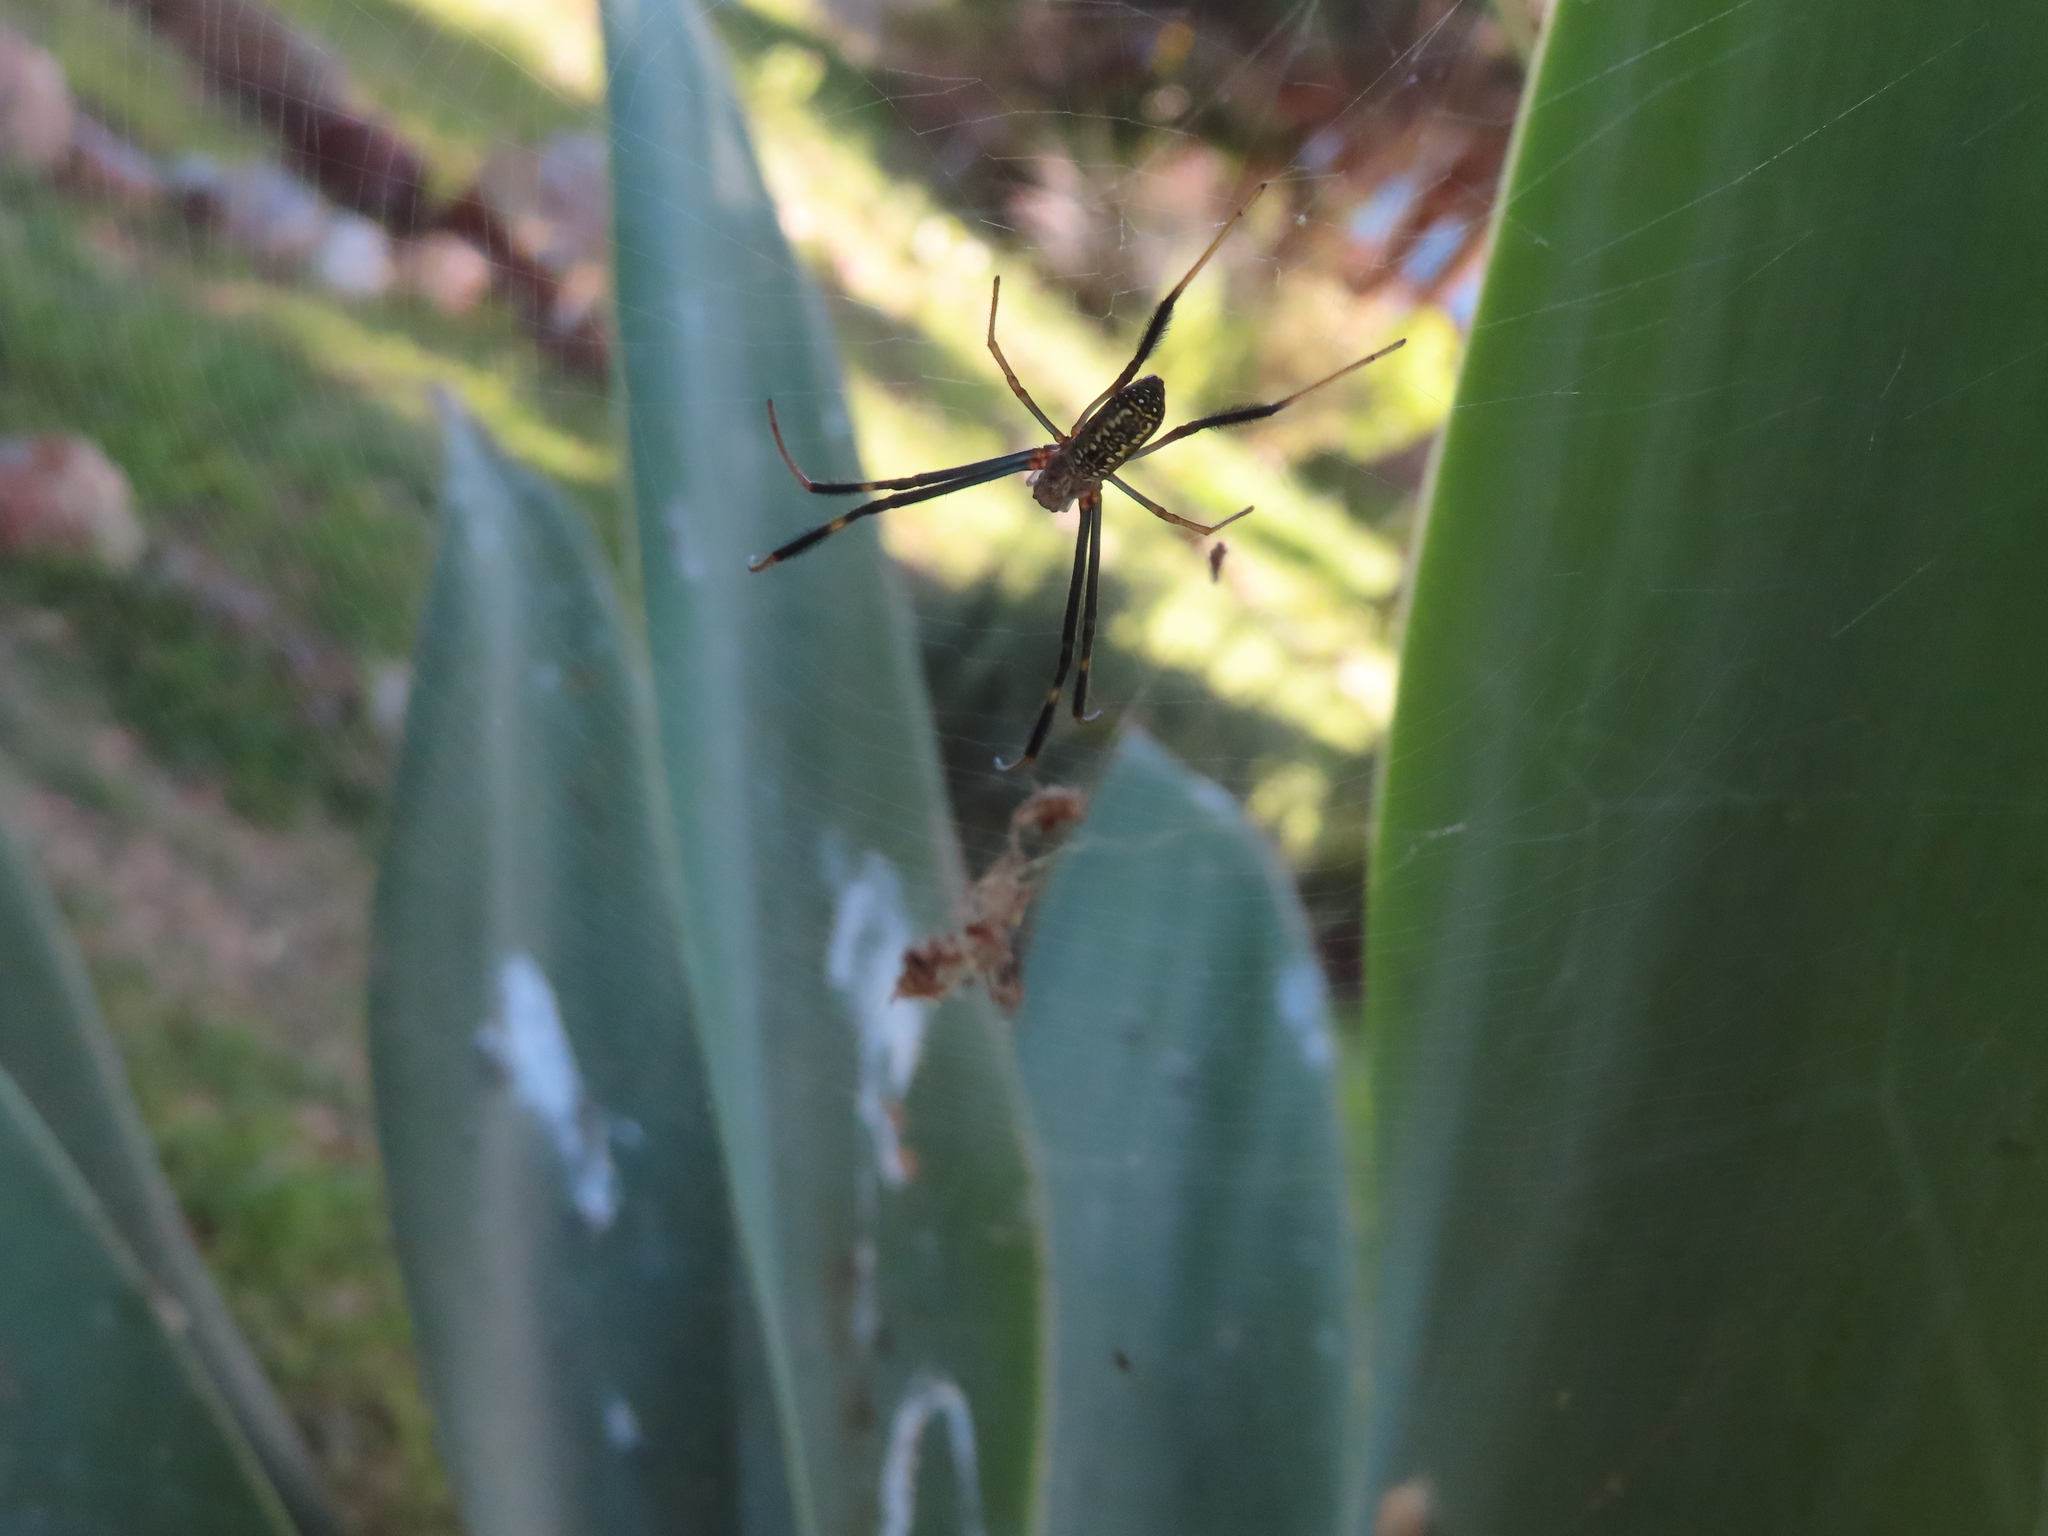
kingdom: Animalia
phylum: Arthropoda
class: Arachnida
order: Araneae
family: Araneidae
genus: Trichonephila
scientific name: Trichonephila fenestrata
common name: Hairy golden orb weaver
